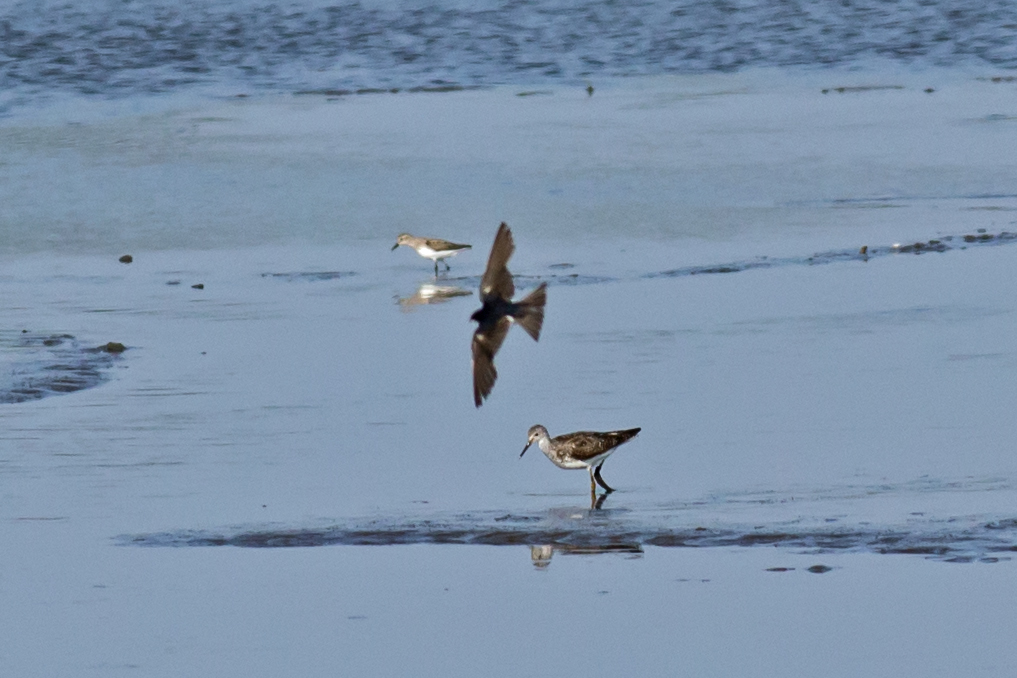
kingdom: Animalia
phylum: Chordata
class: Aves
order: Charadriiformes
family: Scolopacidae
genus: Tringa
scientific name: Tringa flavipes
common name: Lesser yellowlegs
